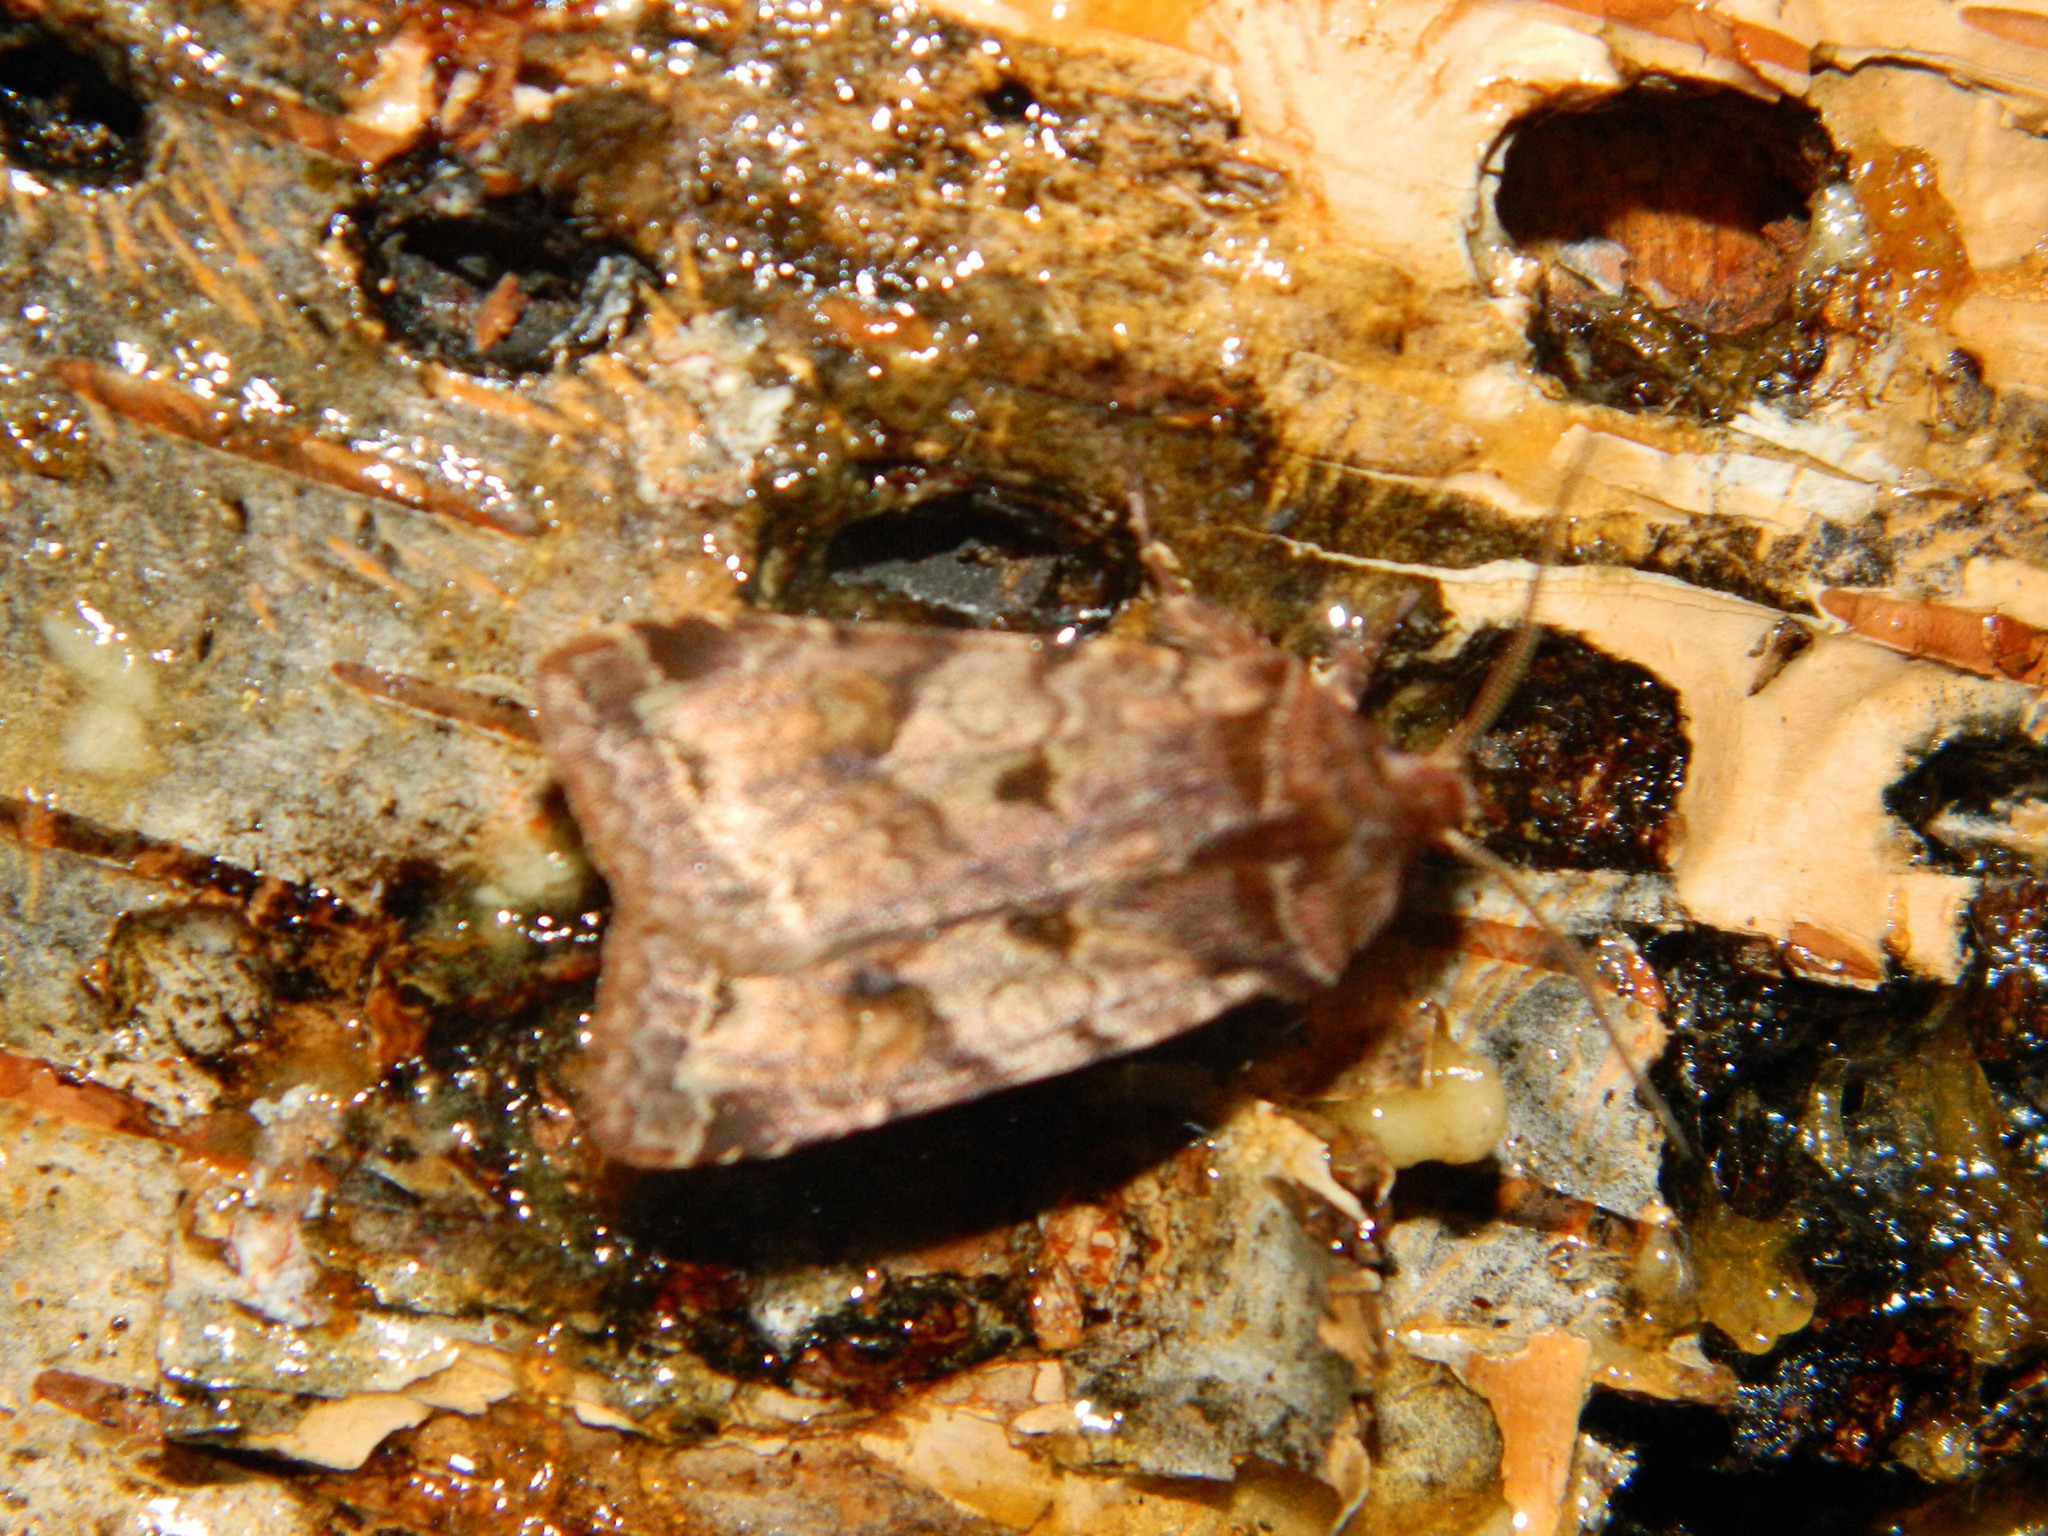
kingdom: Animalia
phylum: Arthropoda
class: Insecta
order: Lepidoptera
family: Noctuidae
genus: Cerastis
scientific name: Cerastis salicarum
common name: Willow dart
